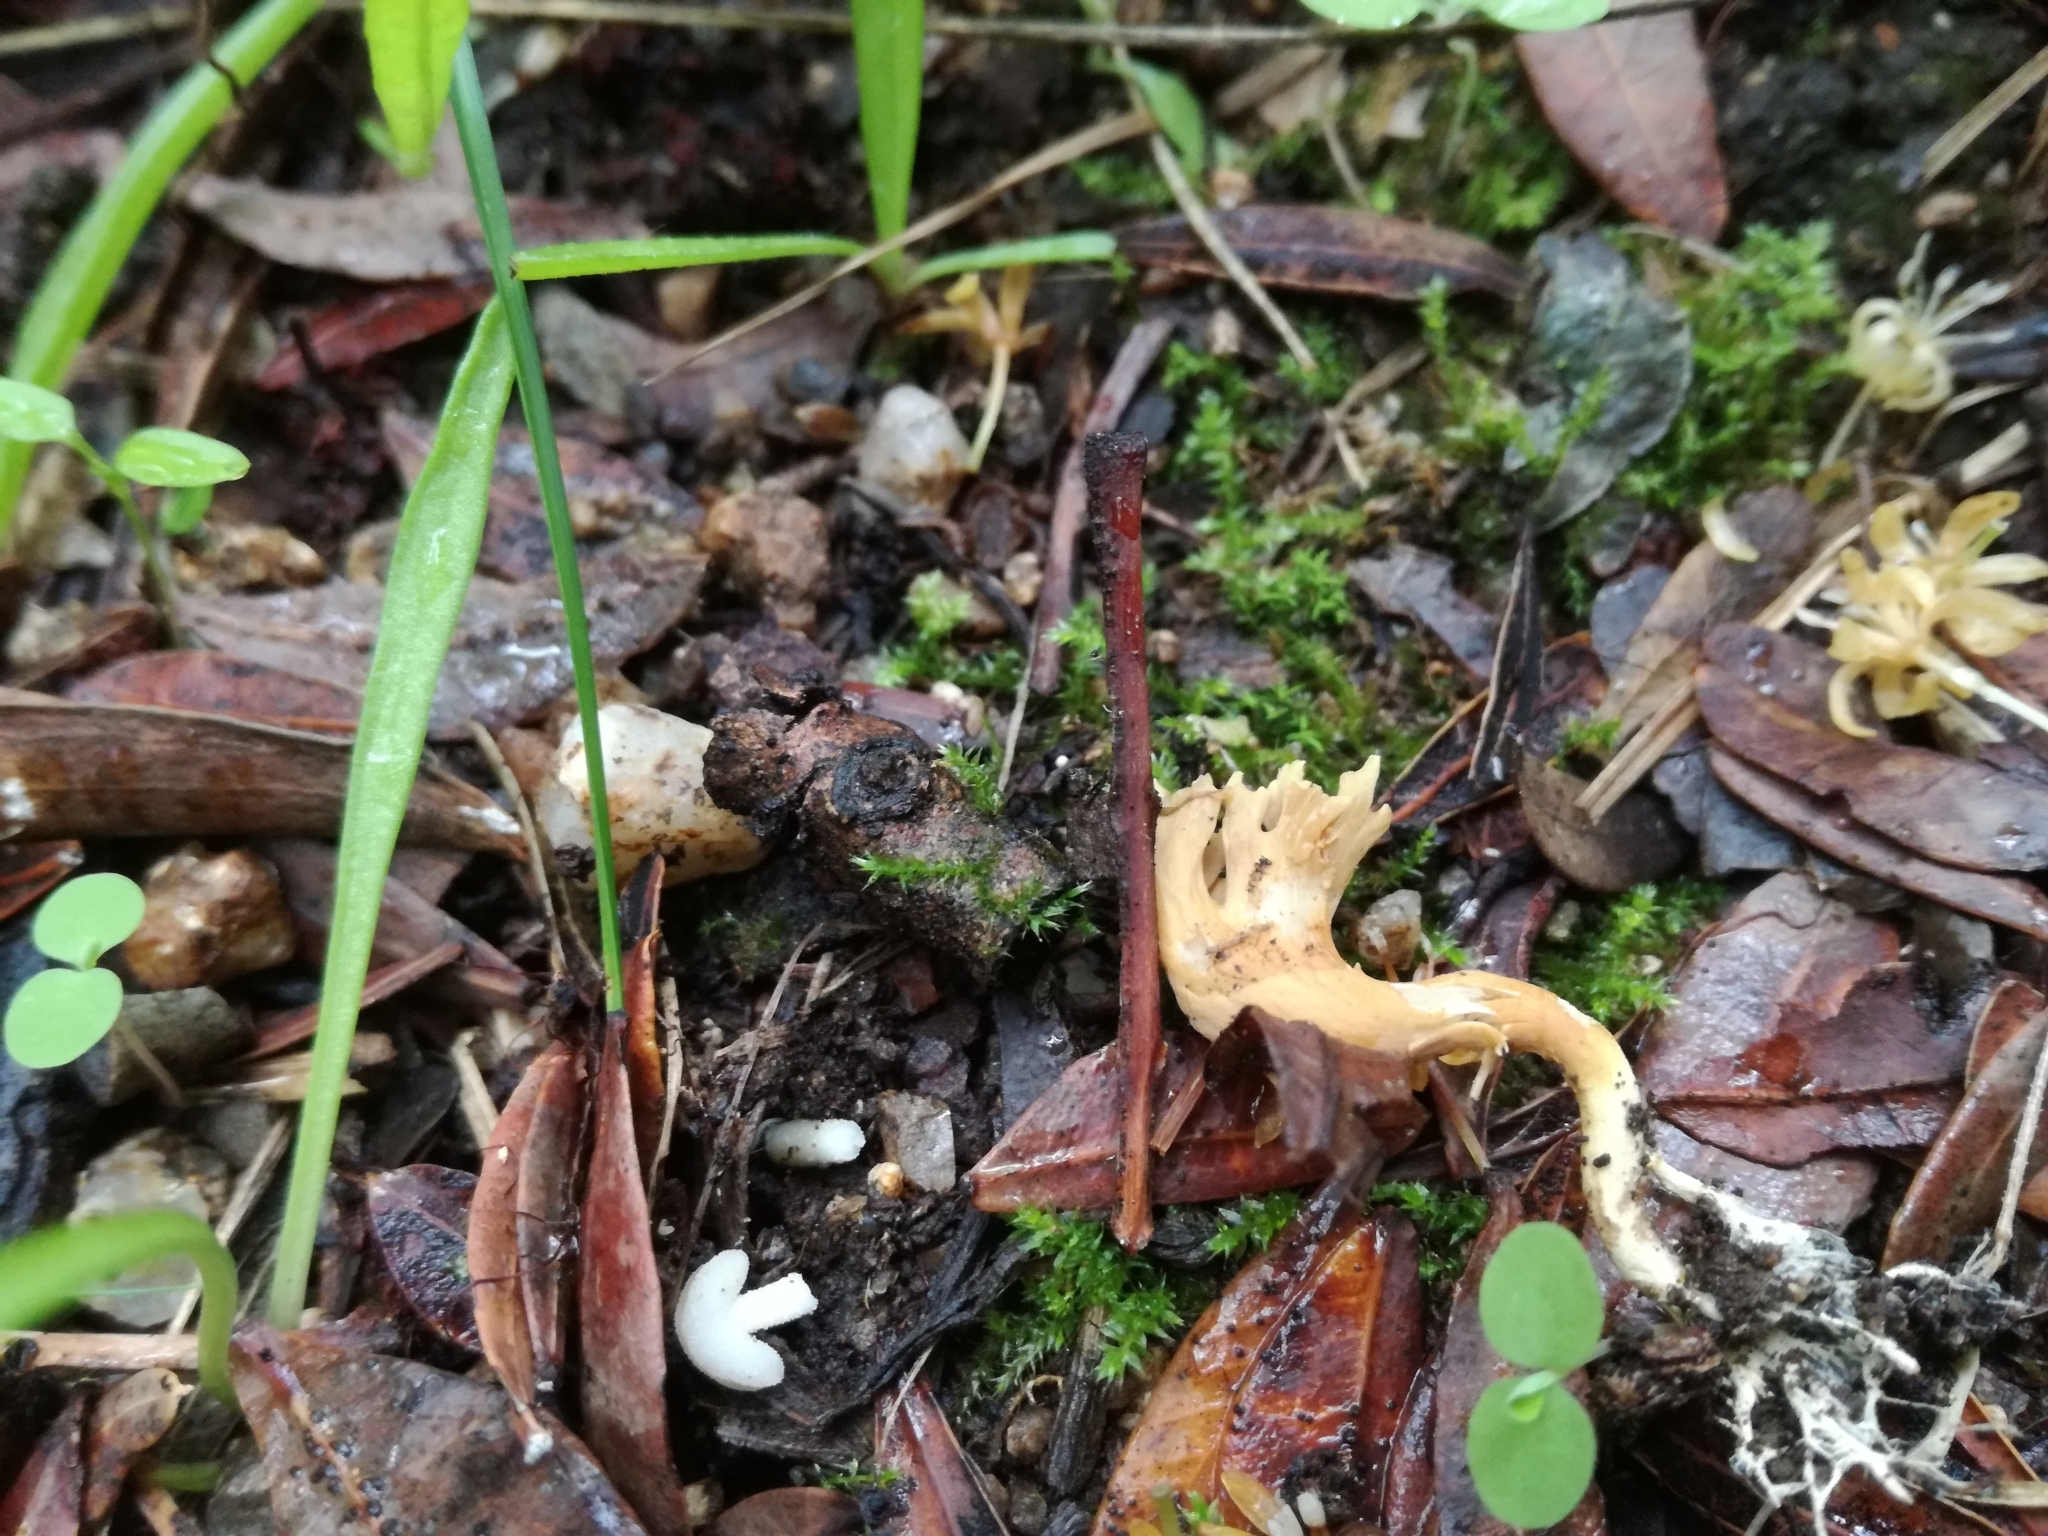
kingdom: Fungi
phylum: Basidiomycota
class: Agaricomycetes
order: Gomphales
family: Gomphaceae
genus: Phaeoclavulina
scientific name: Phaeoclavulina clavarioides
